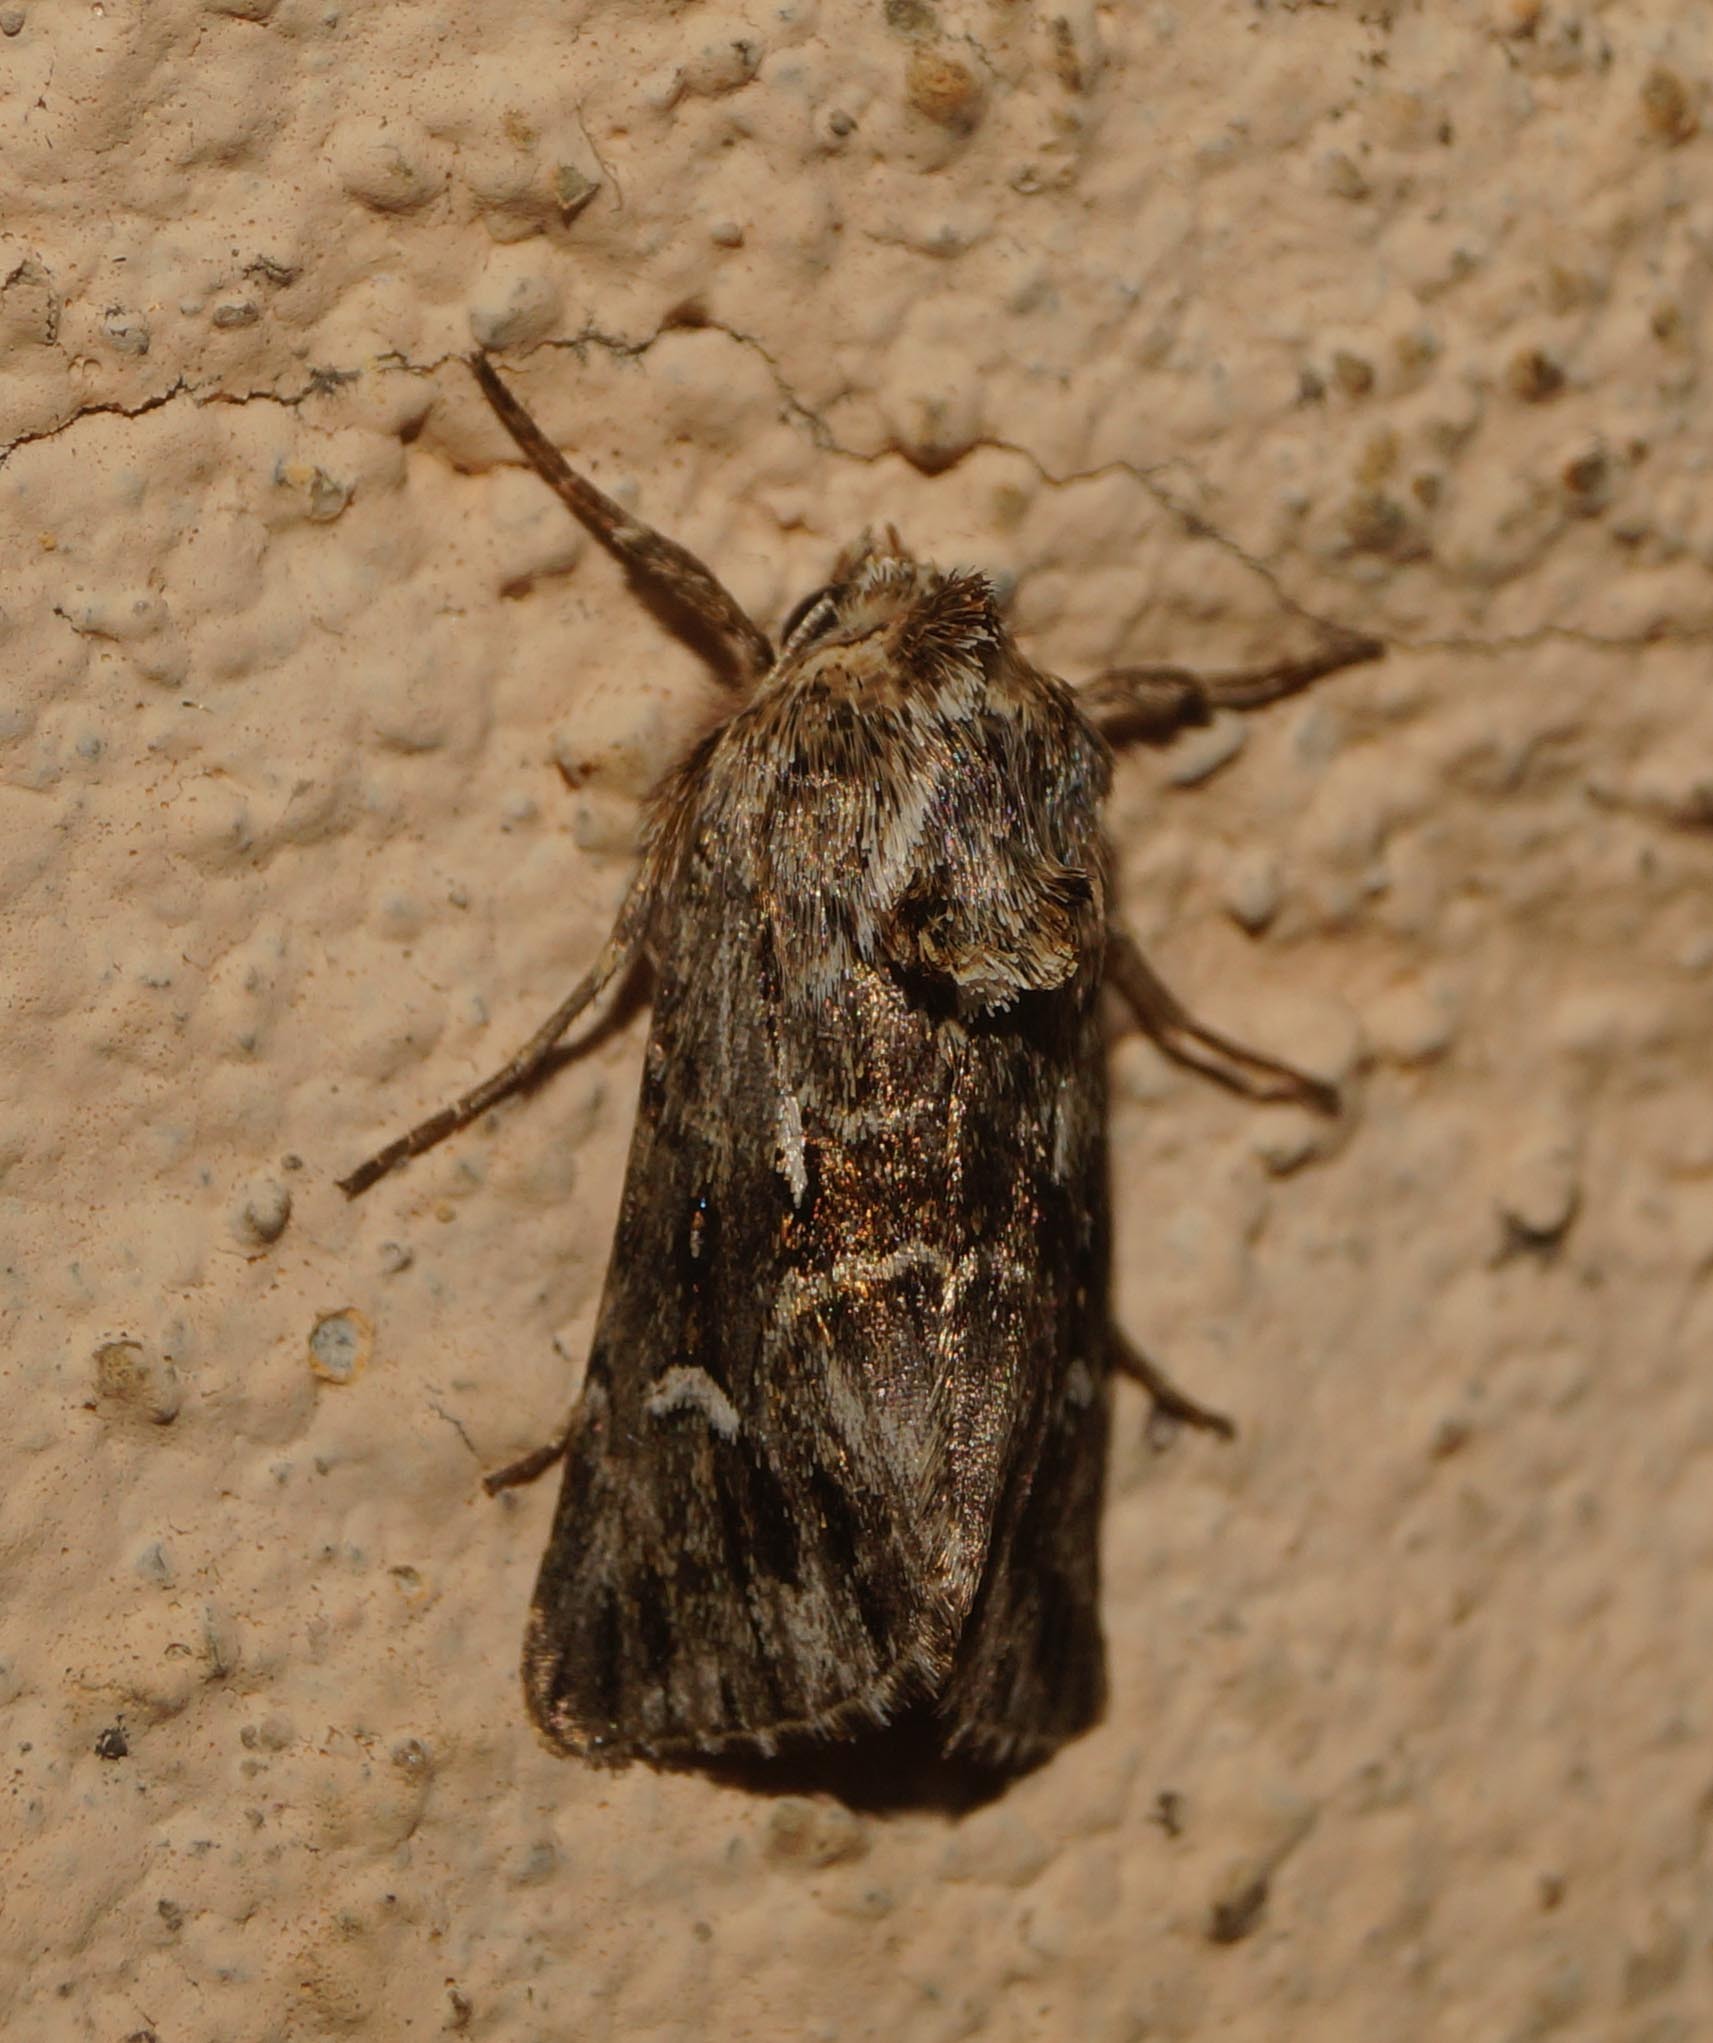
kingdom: Animalia
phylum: Arthropoda
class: Insecta
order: Lepidoptera
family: Noctuidae
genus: Calophasia
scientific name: Calophasia lunula
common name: Toadflax brocade
